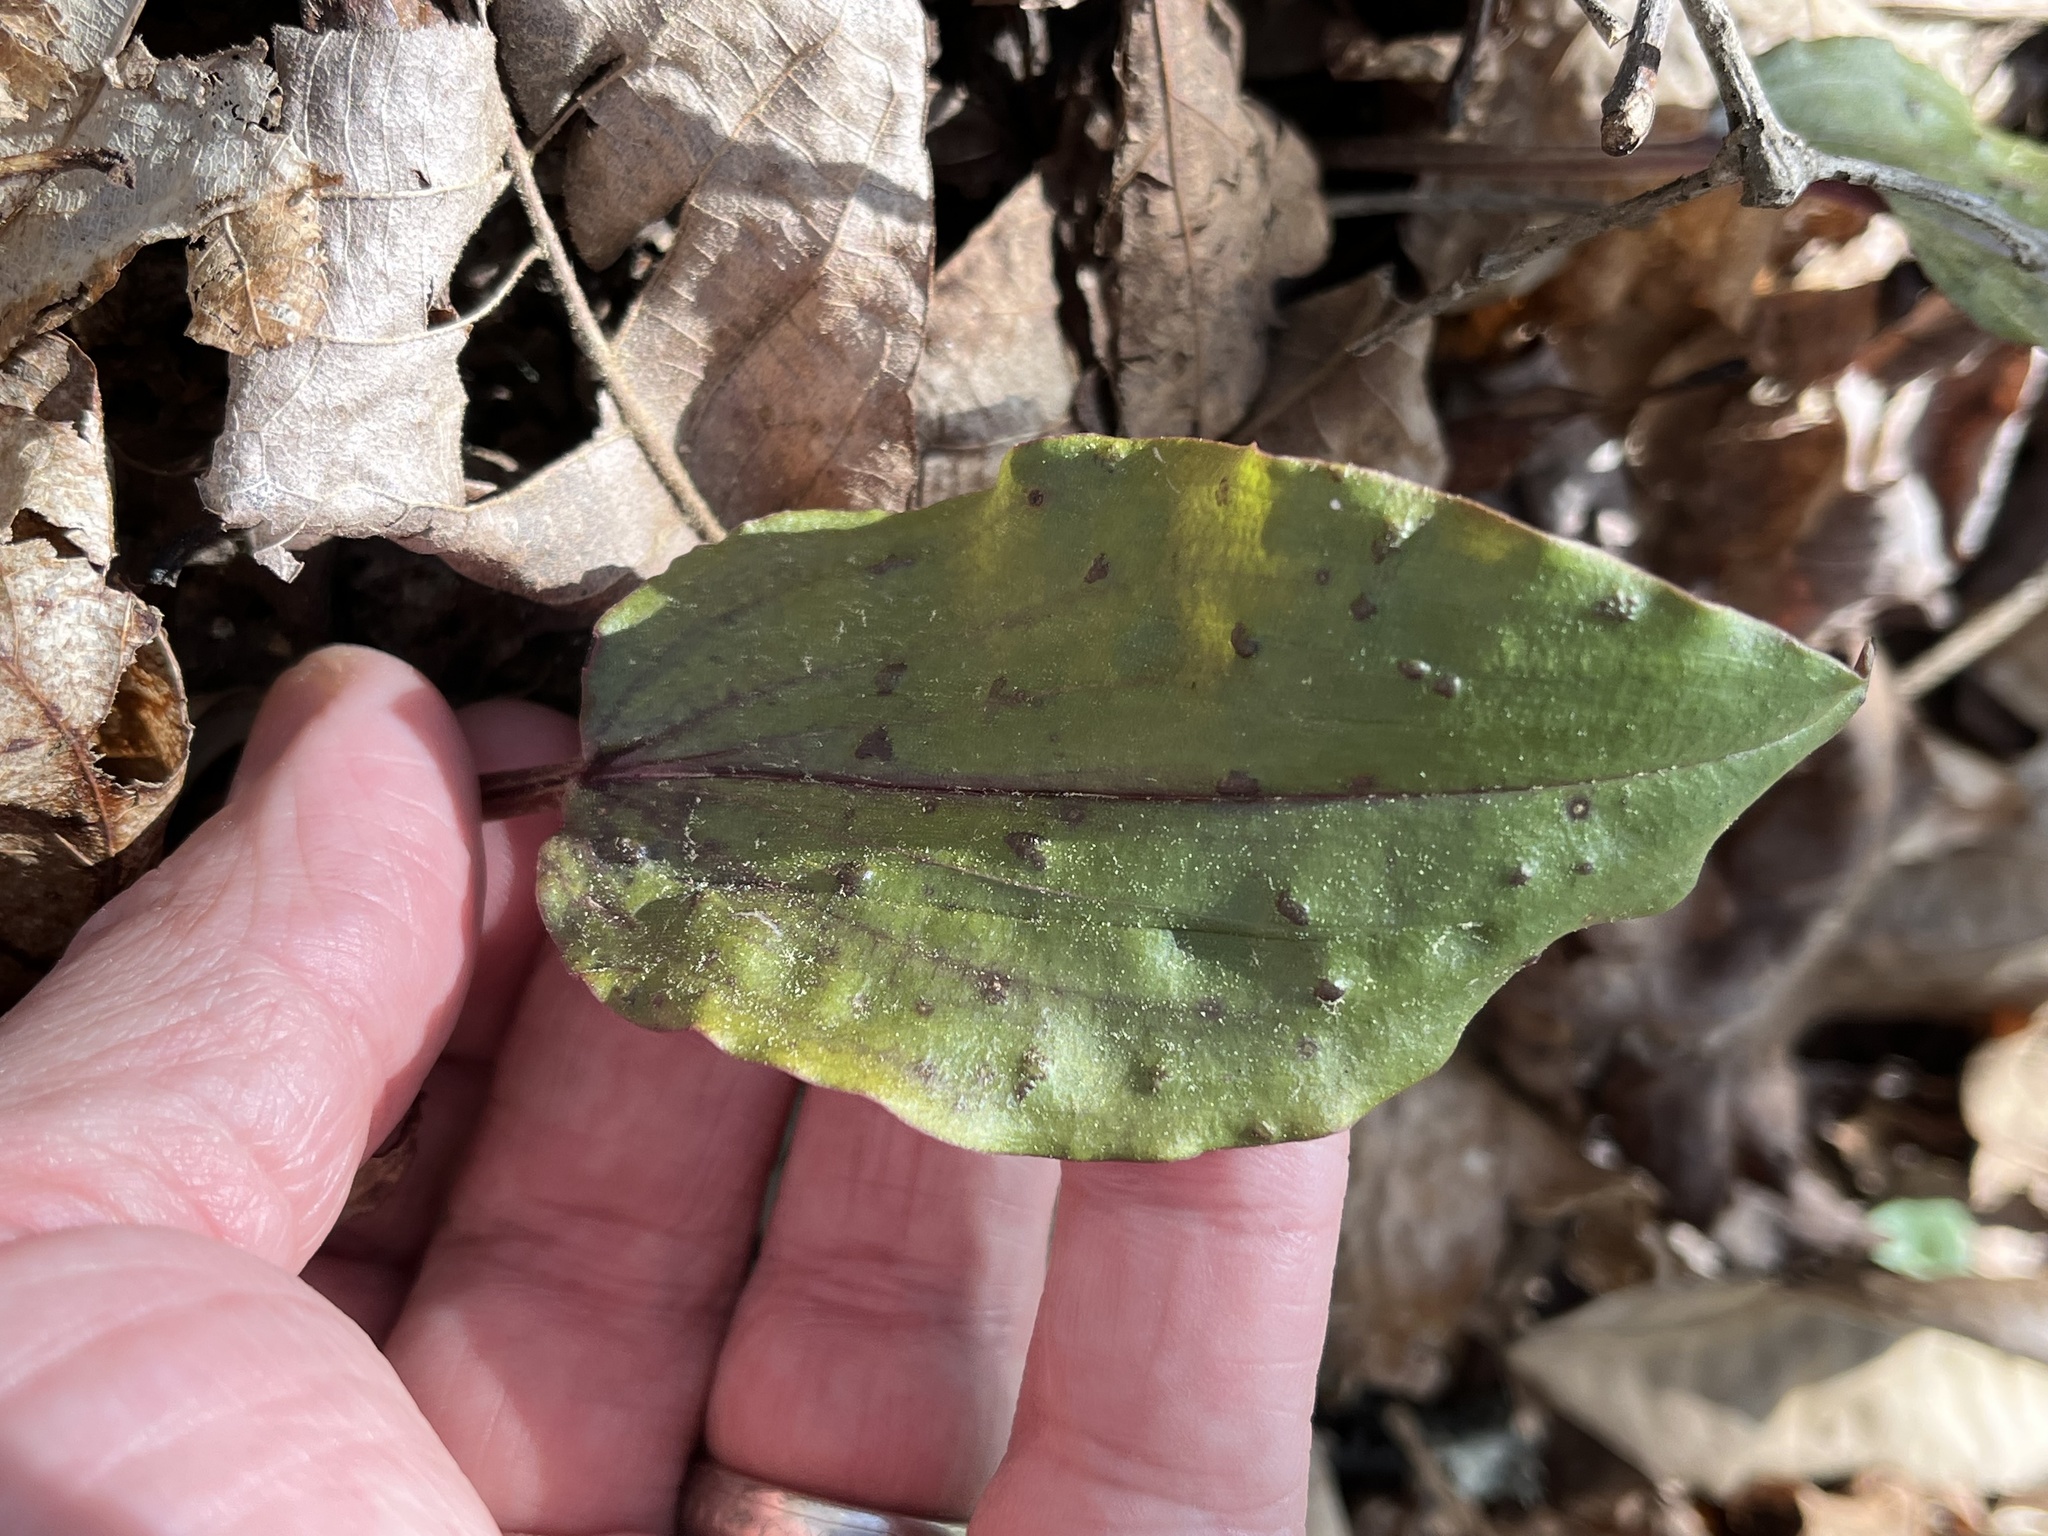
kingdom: Plantae
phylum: Tracheophyta
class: Liliopsida
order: Asparagales
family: Orchidaceae
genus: Tipularia
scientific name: Tipularia discolor
